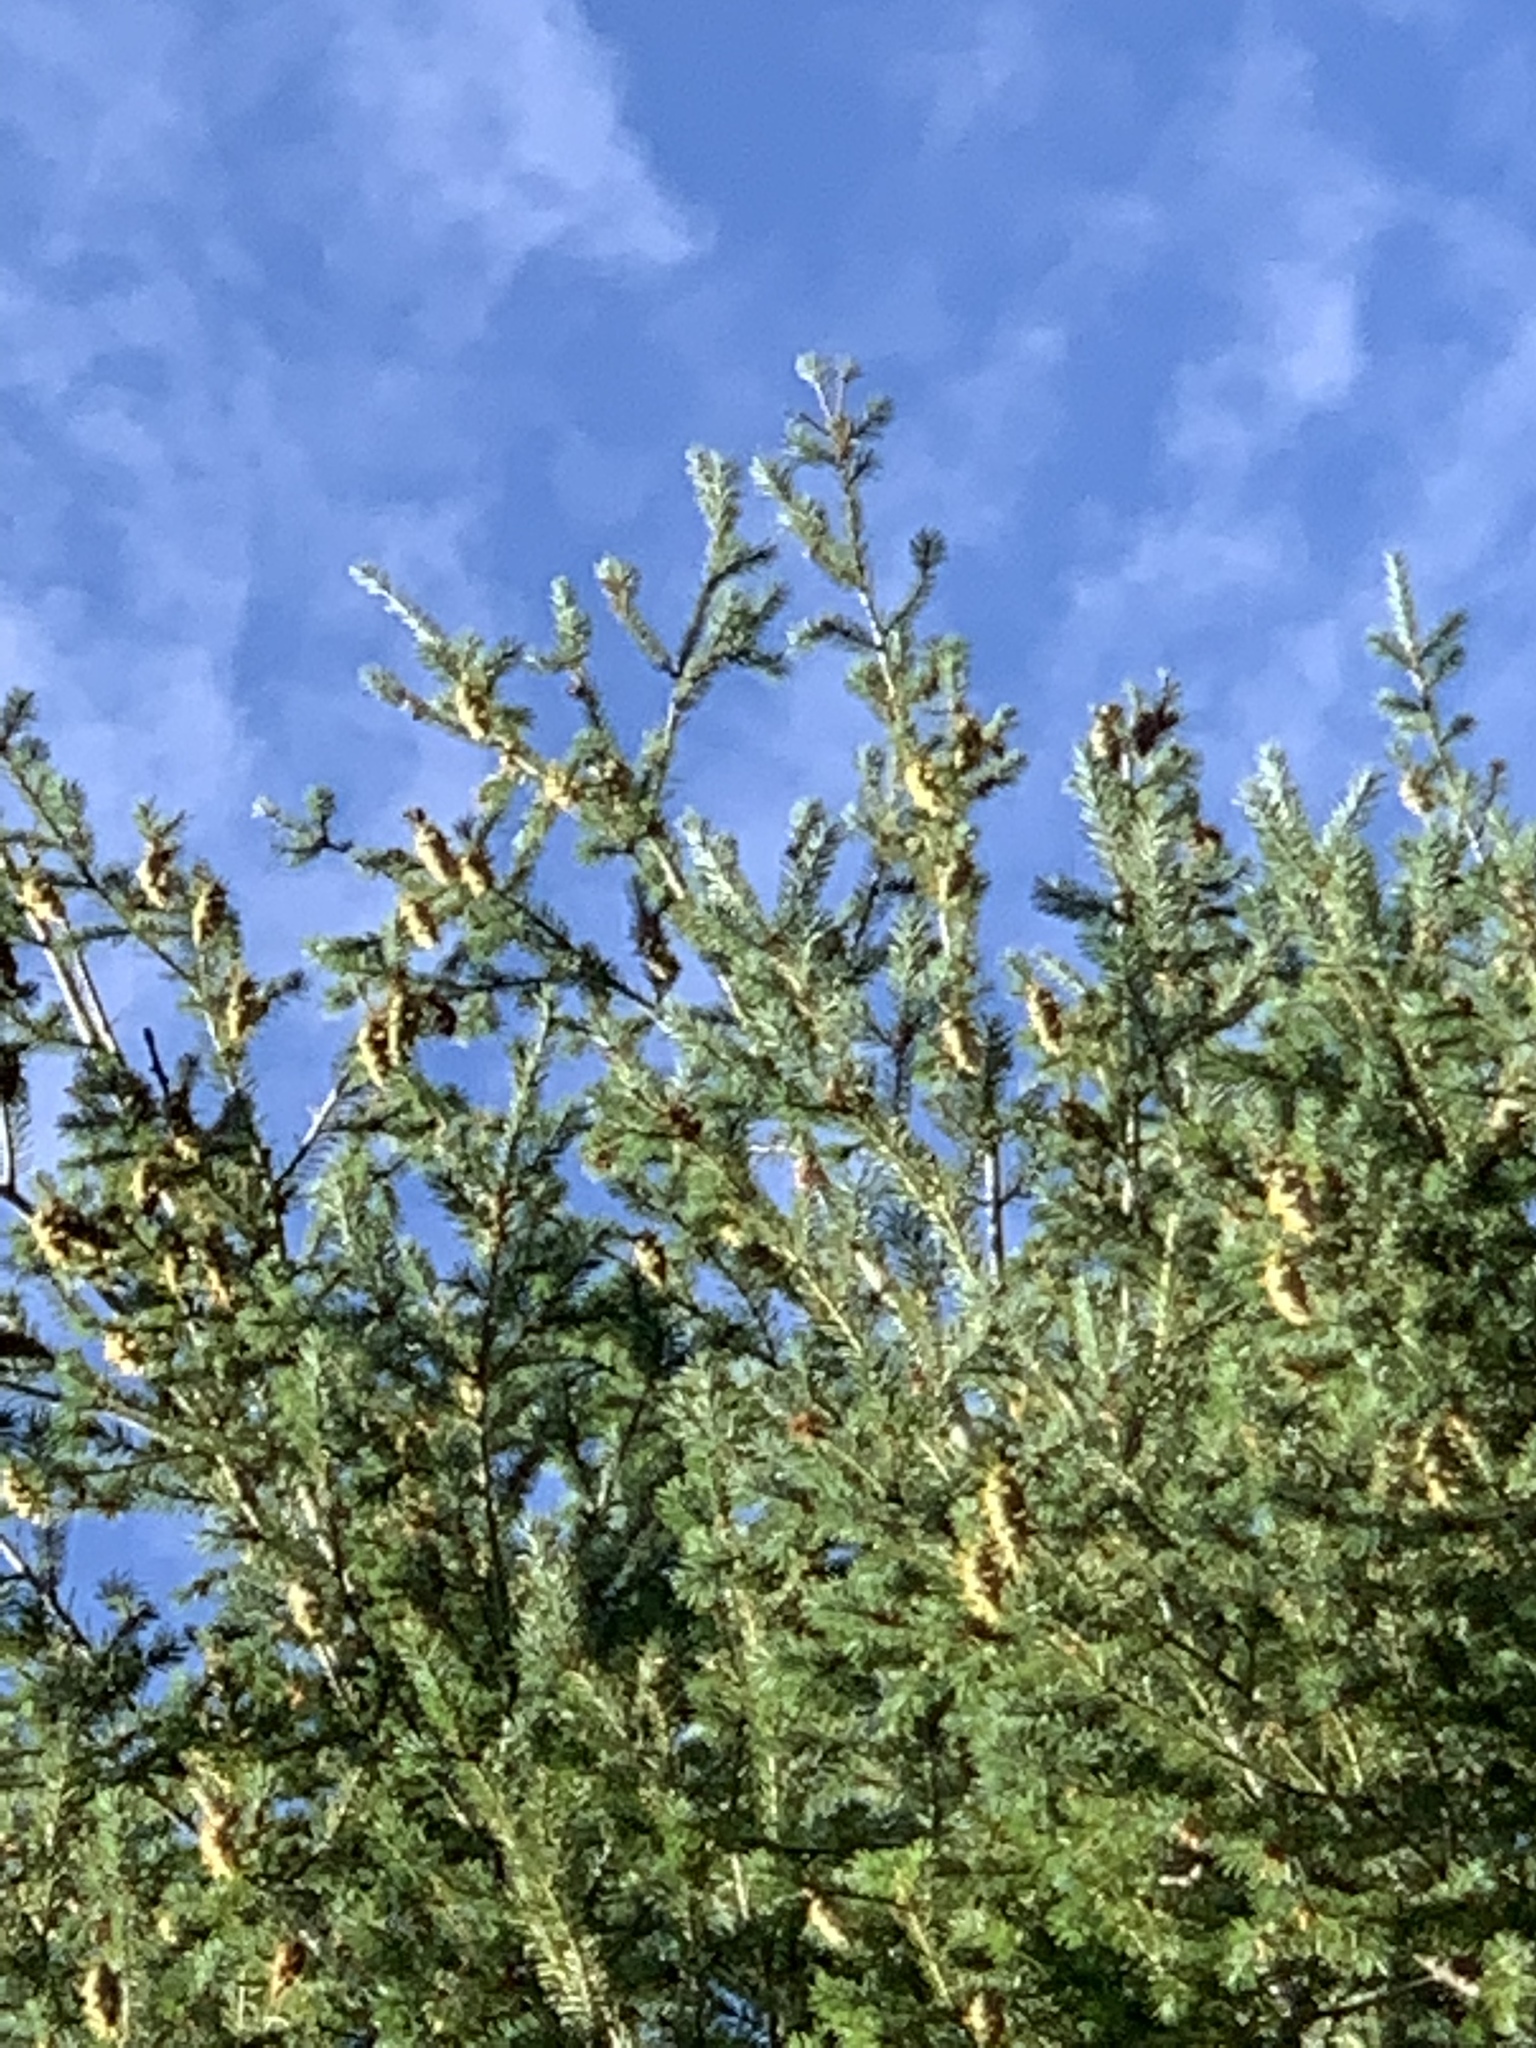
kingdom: Plantae
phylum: Tracheophyta
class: Pinopsida
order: Pinales
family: Pinaceae
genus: Pseudotsuga
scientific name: Pseudotsuga menziesii
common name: Douglas fir
